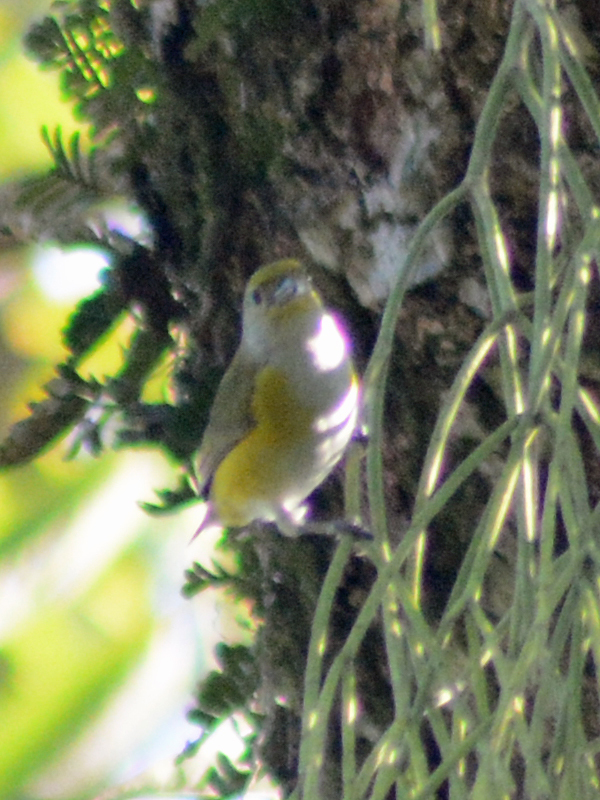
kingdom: Animalia
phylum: Chordata
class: Aves
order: Passeriformes
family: Fringillidae
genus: Euphonia
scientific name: Euphonia hirundinacea
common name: Yellow-throated euphonia
